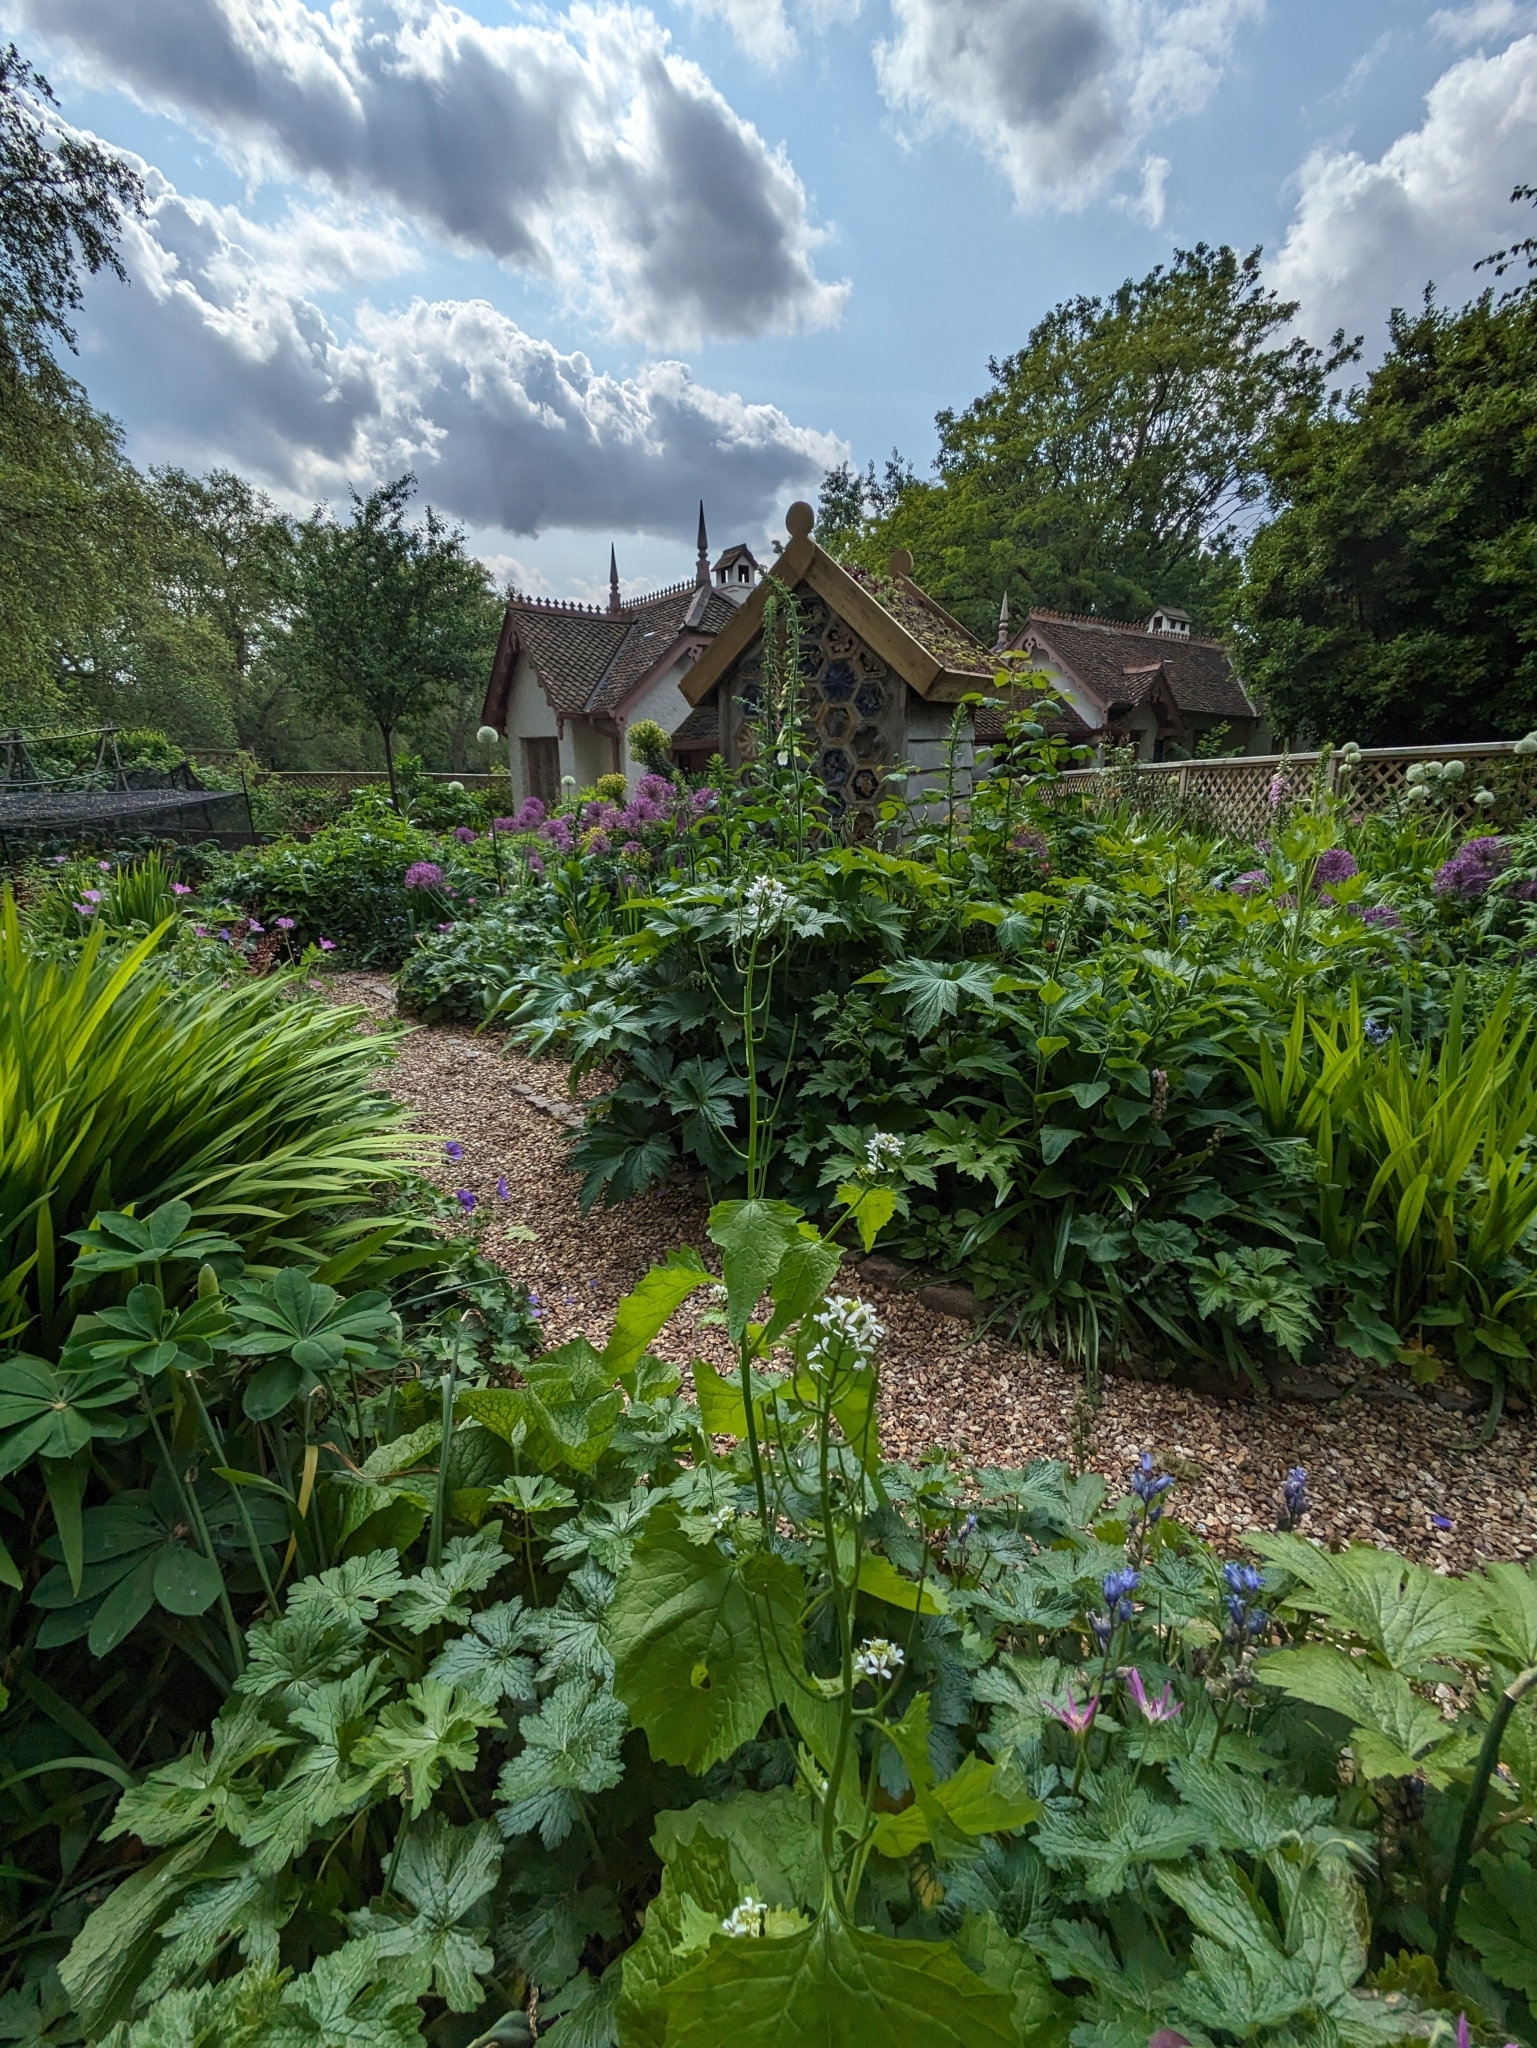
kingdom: Plantae
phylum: Tracheophyta
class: Magnoliopsida
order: Brassicales
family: Brassicaceae
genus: Alliaria
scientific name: Alliaria petiolata
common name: Garlic mustard
